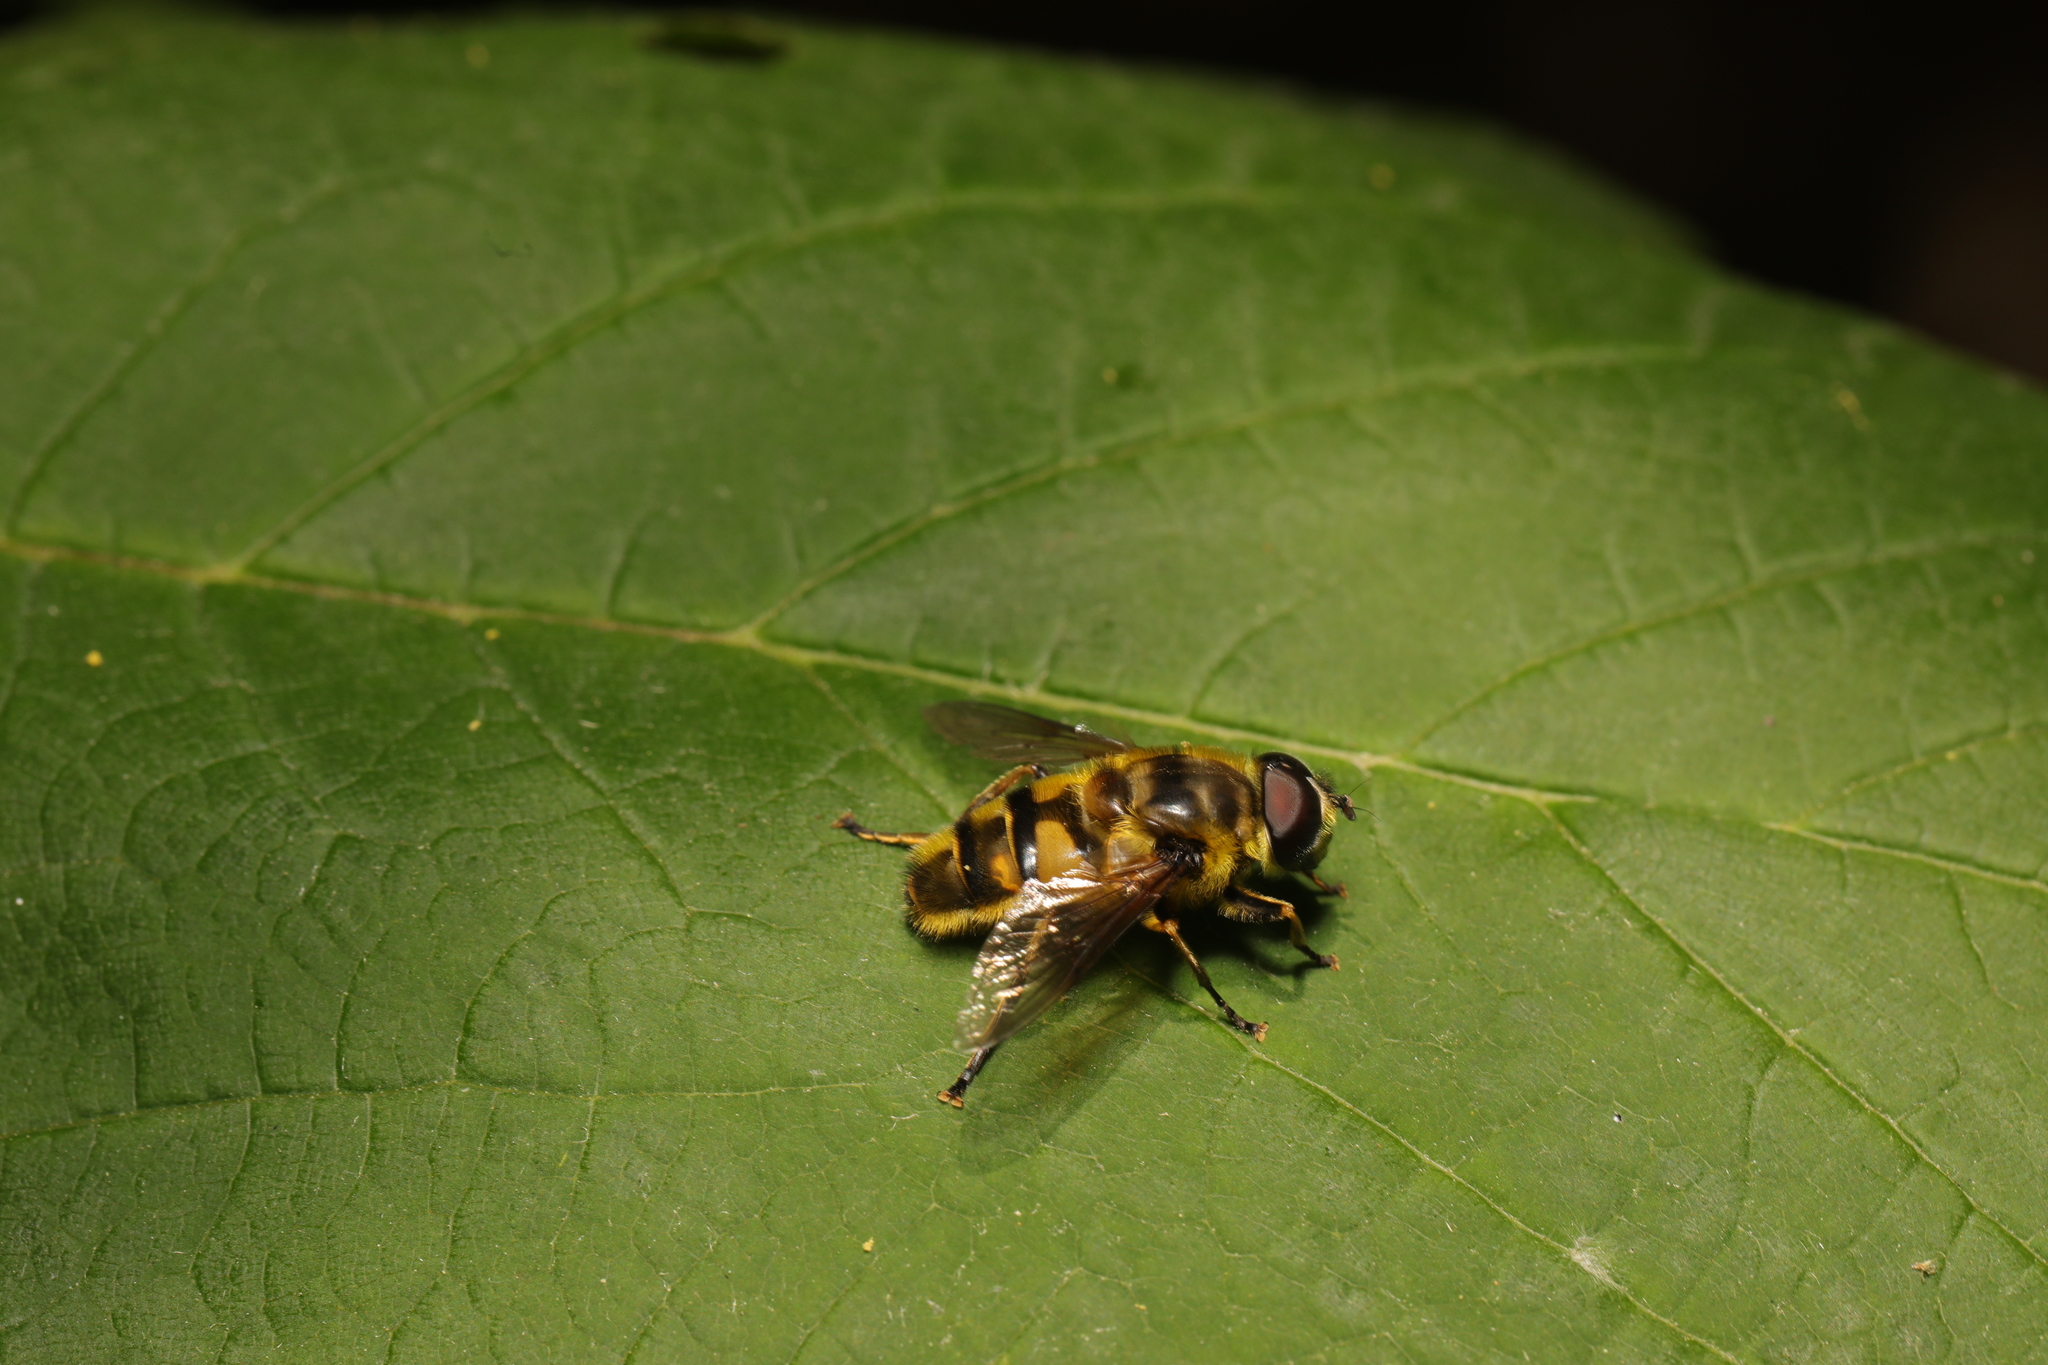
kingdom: Animalia
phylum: Arthropoda
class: Insecta
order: Diptera
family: Syrphidae
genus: Myathropa
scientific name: Myathropa florea
